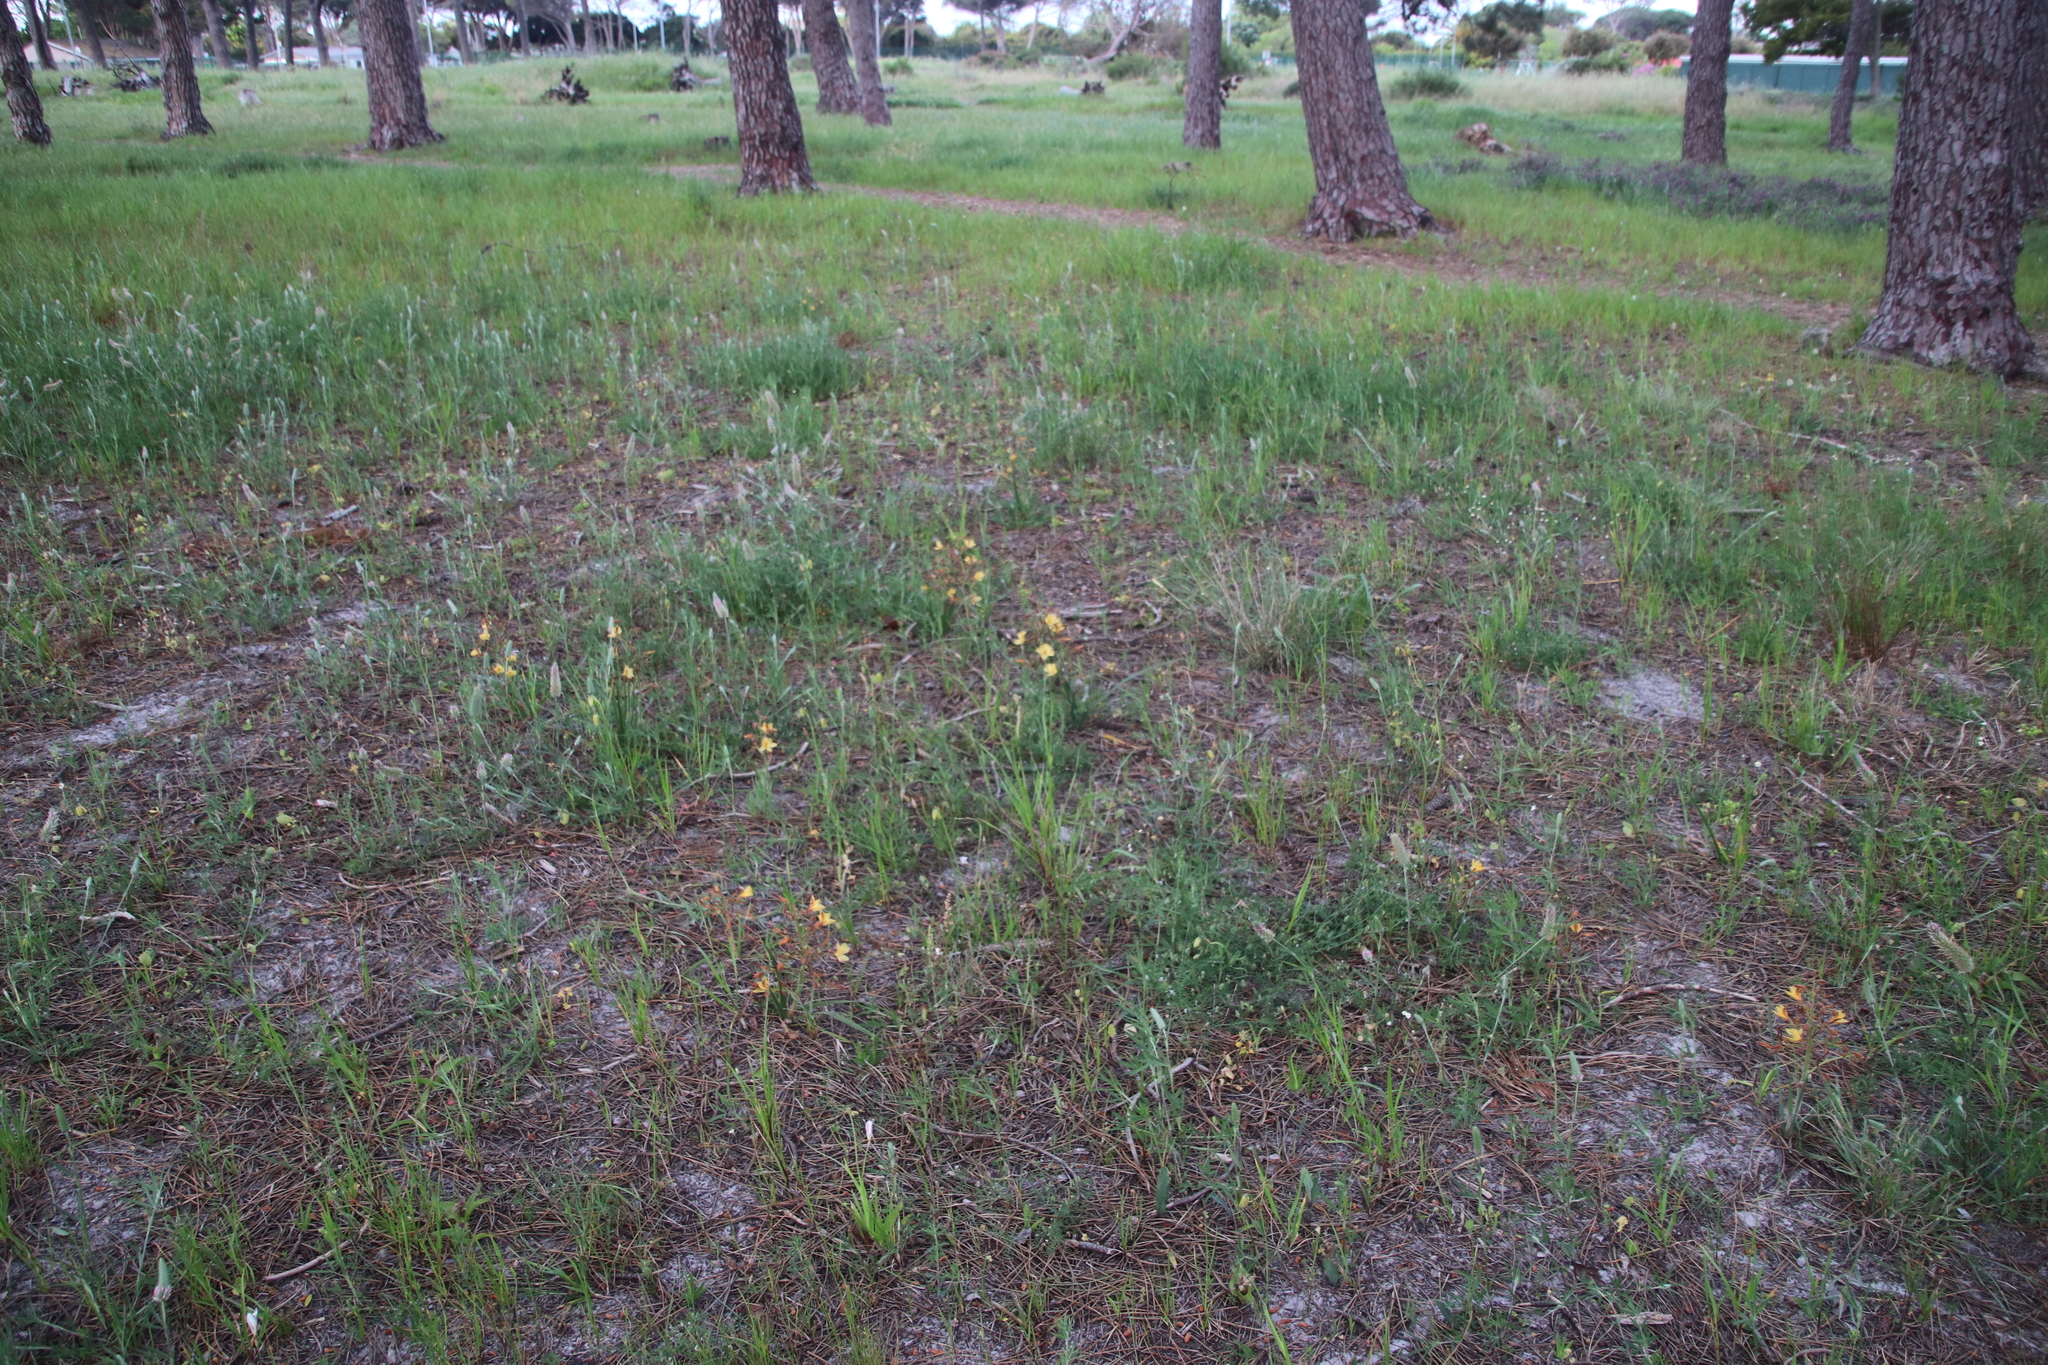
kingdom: Plantae
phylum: Tracheophyta
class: Liliopsida
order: Commelinales
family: Haemodoraceae
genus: Wachendorfia
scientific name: Wachendorfia paniculata
